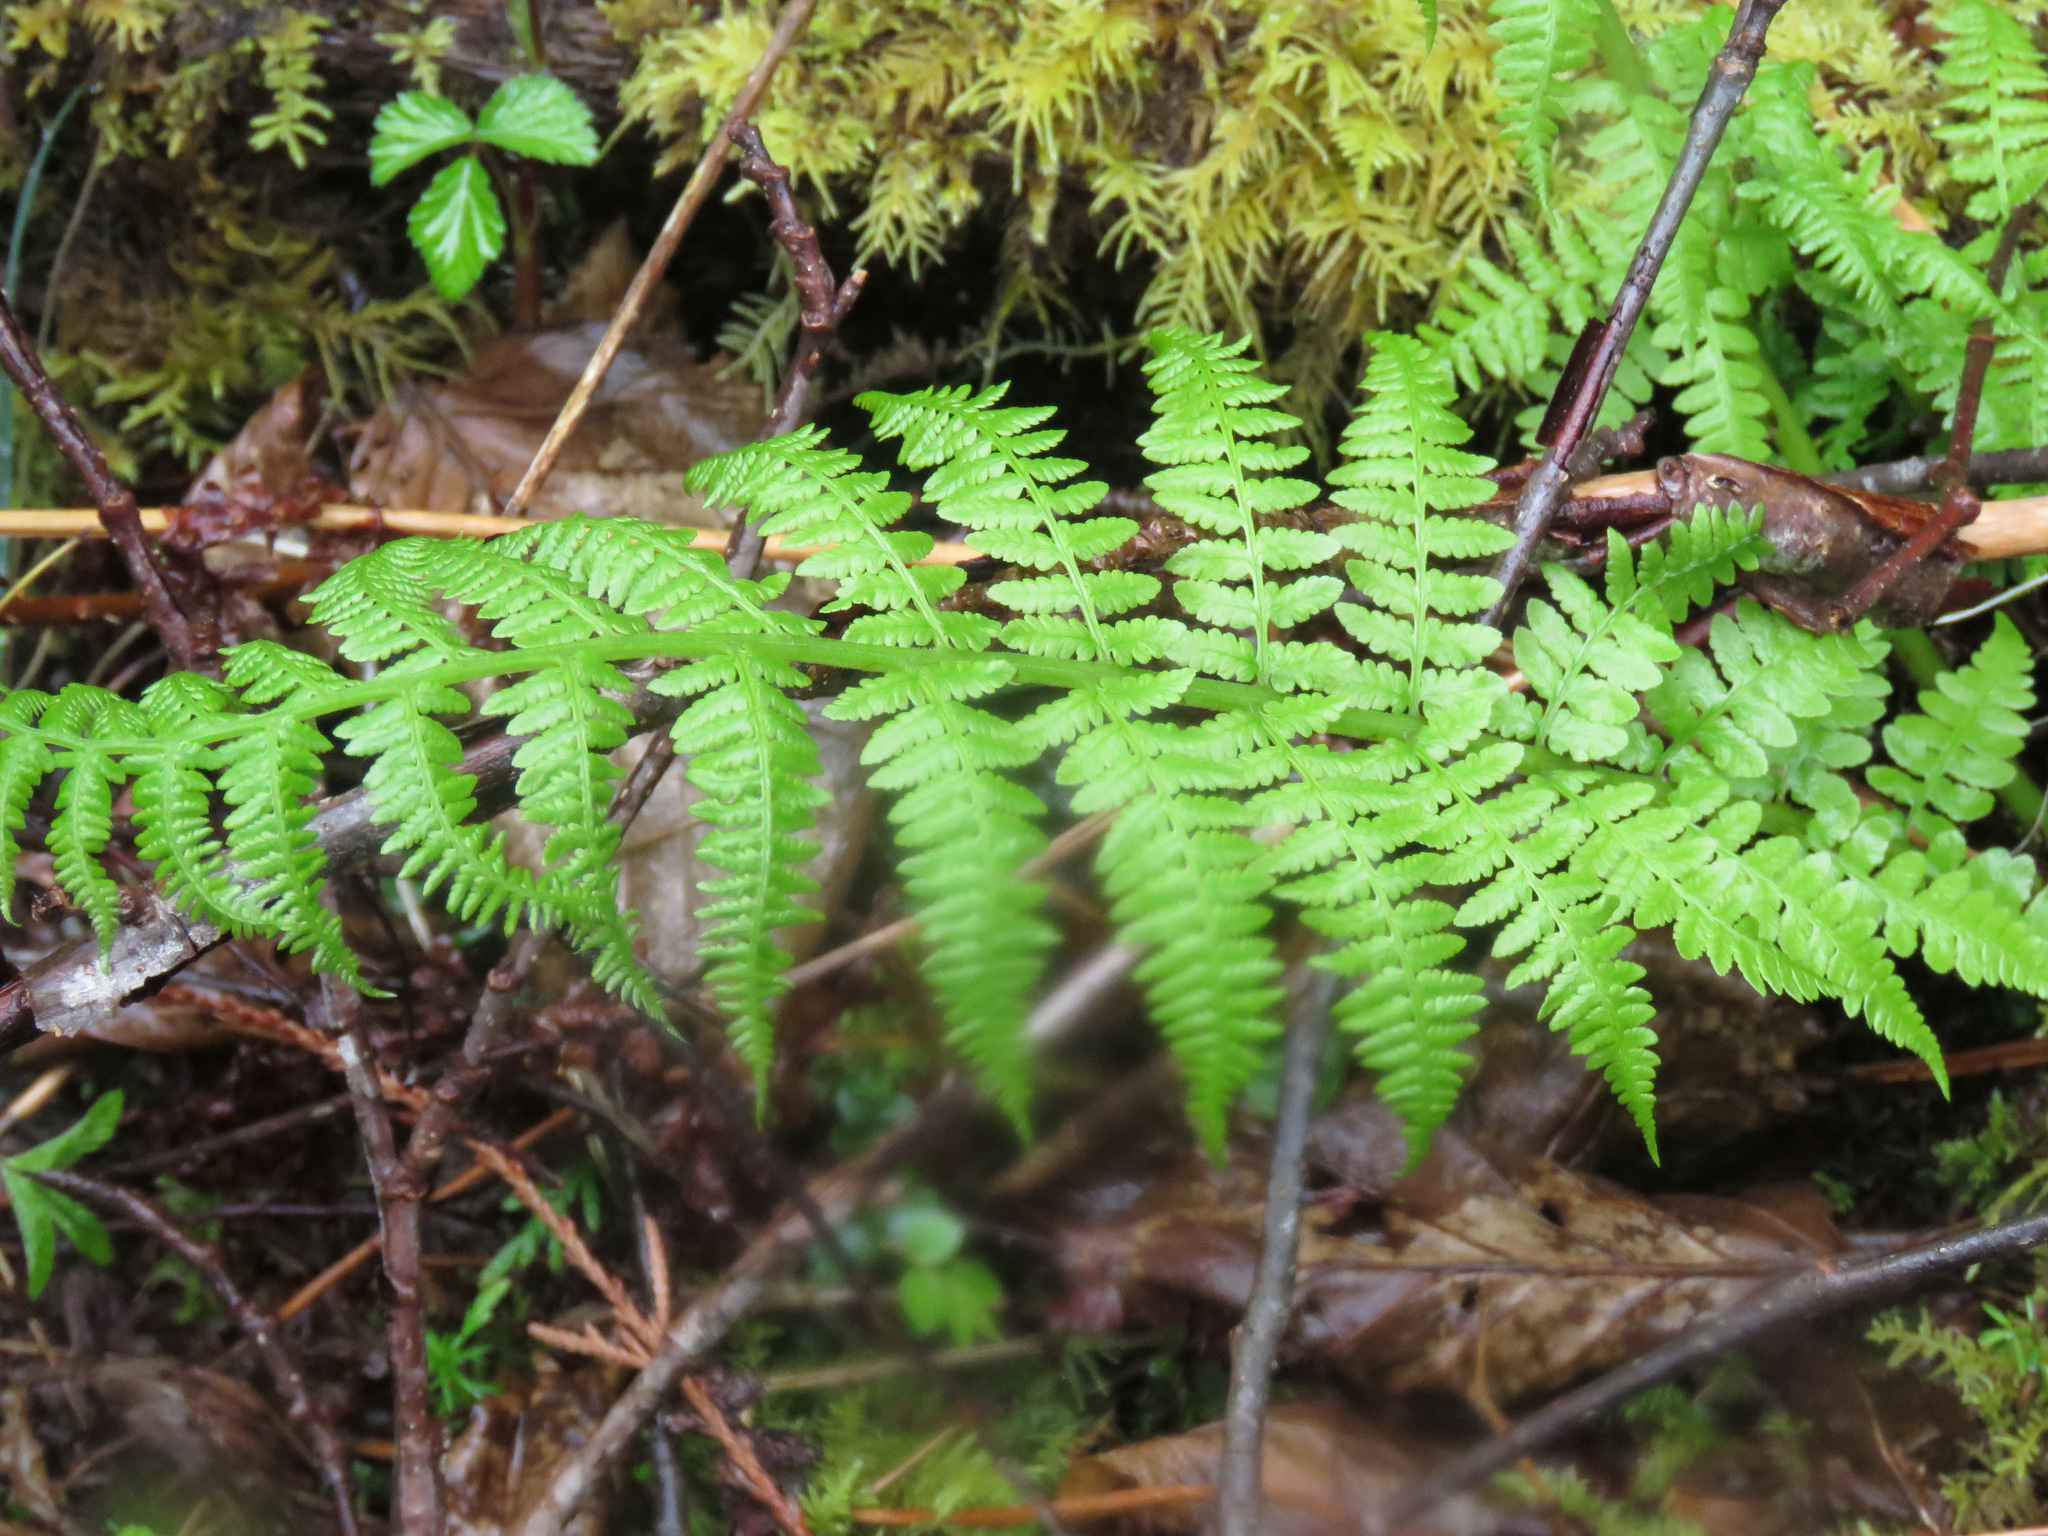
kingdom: Plantae
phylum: Tracheophyta
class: Polypodiopsida
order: Polypodiales
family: Athyriaceae
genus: Athyrium
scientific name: Athyrium filix-femina
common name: Lady fern
